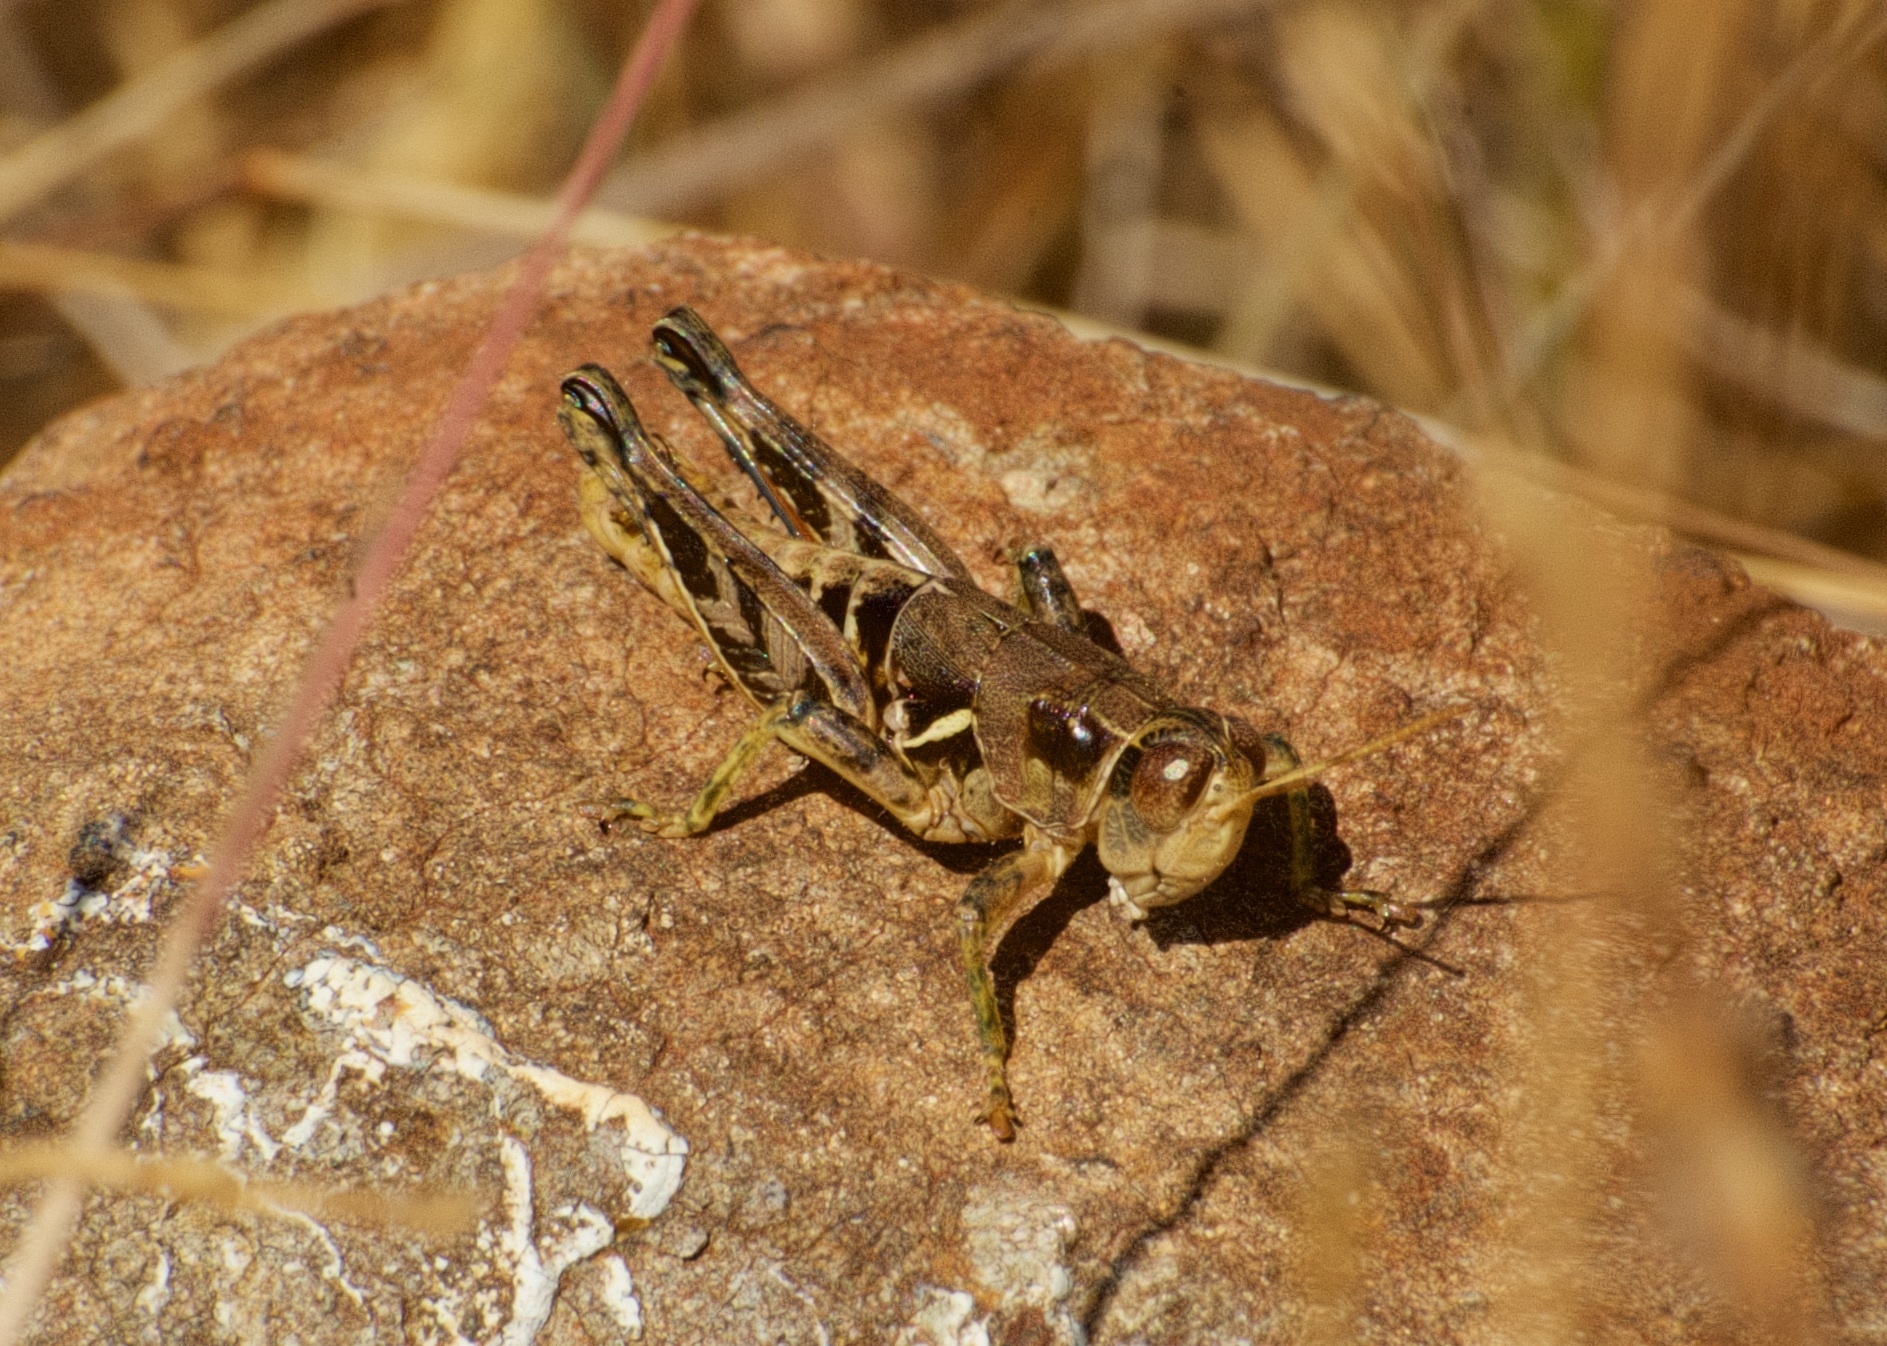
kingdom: Animalia
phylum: Arthropoda
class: Insecta
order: Orthoptera
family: Acrididae
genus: Oedaleonotus
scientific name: Oedaleonotus borckii
